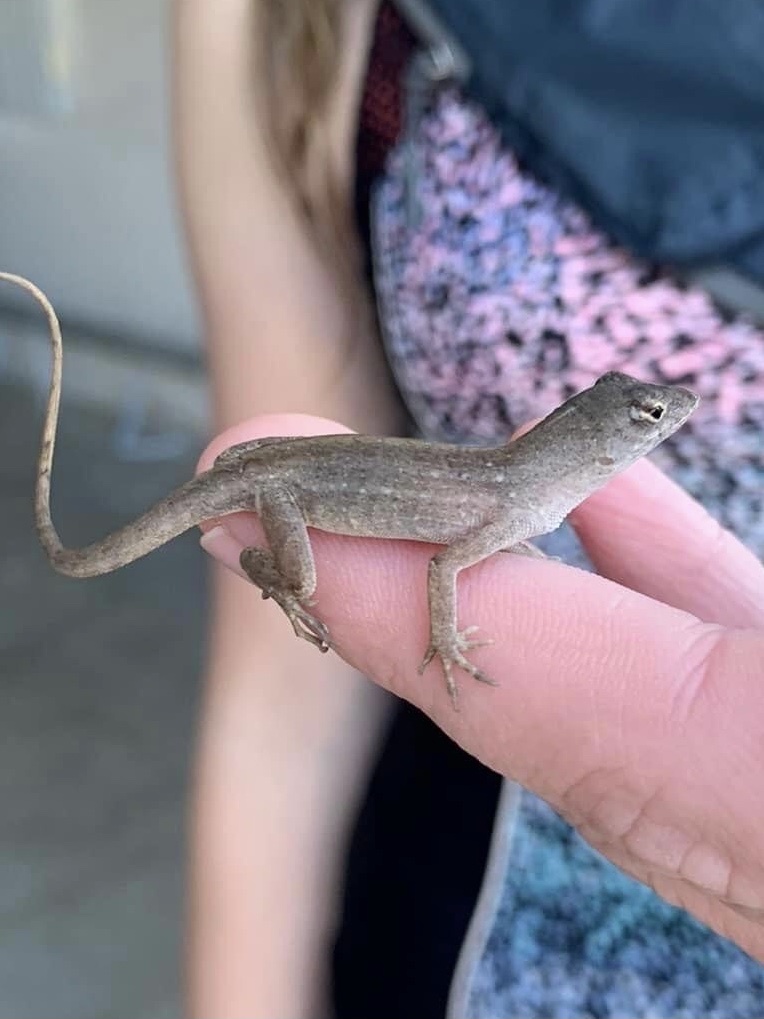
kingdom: Animalia
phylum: Chordata
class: Squamata
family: Dactyloidae
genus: Anolis
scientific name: Anolis sagrei
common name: Brown anole
